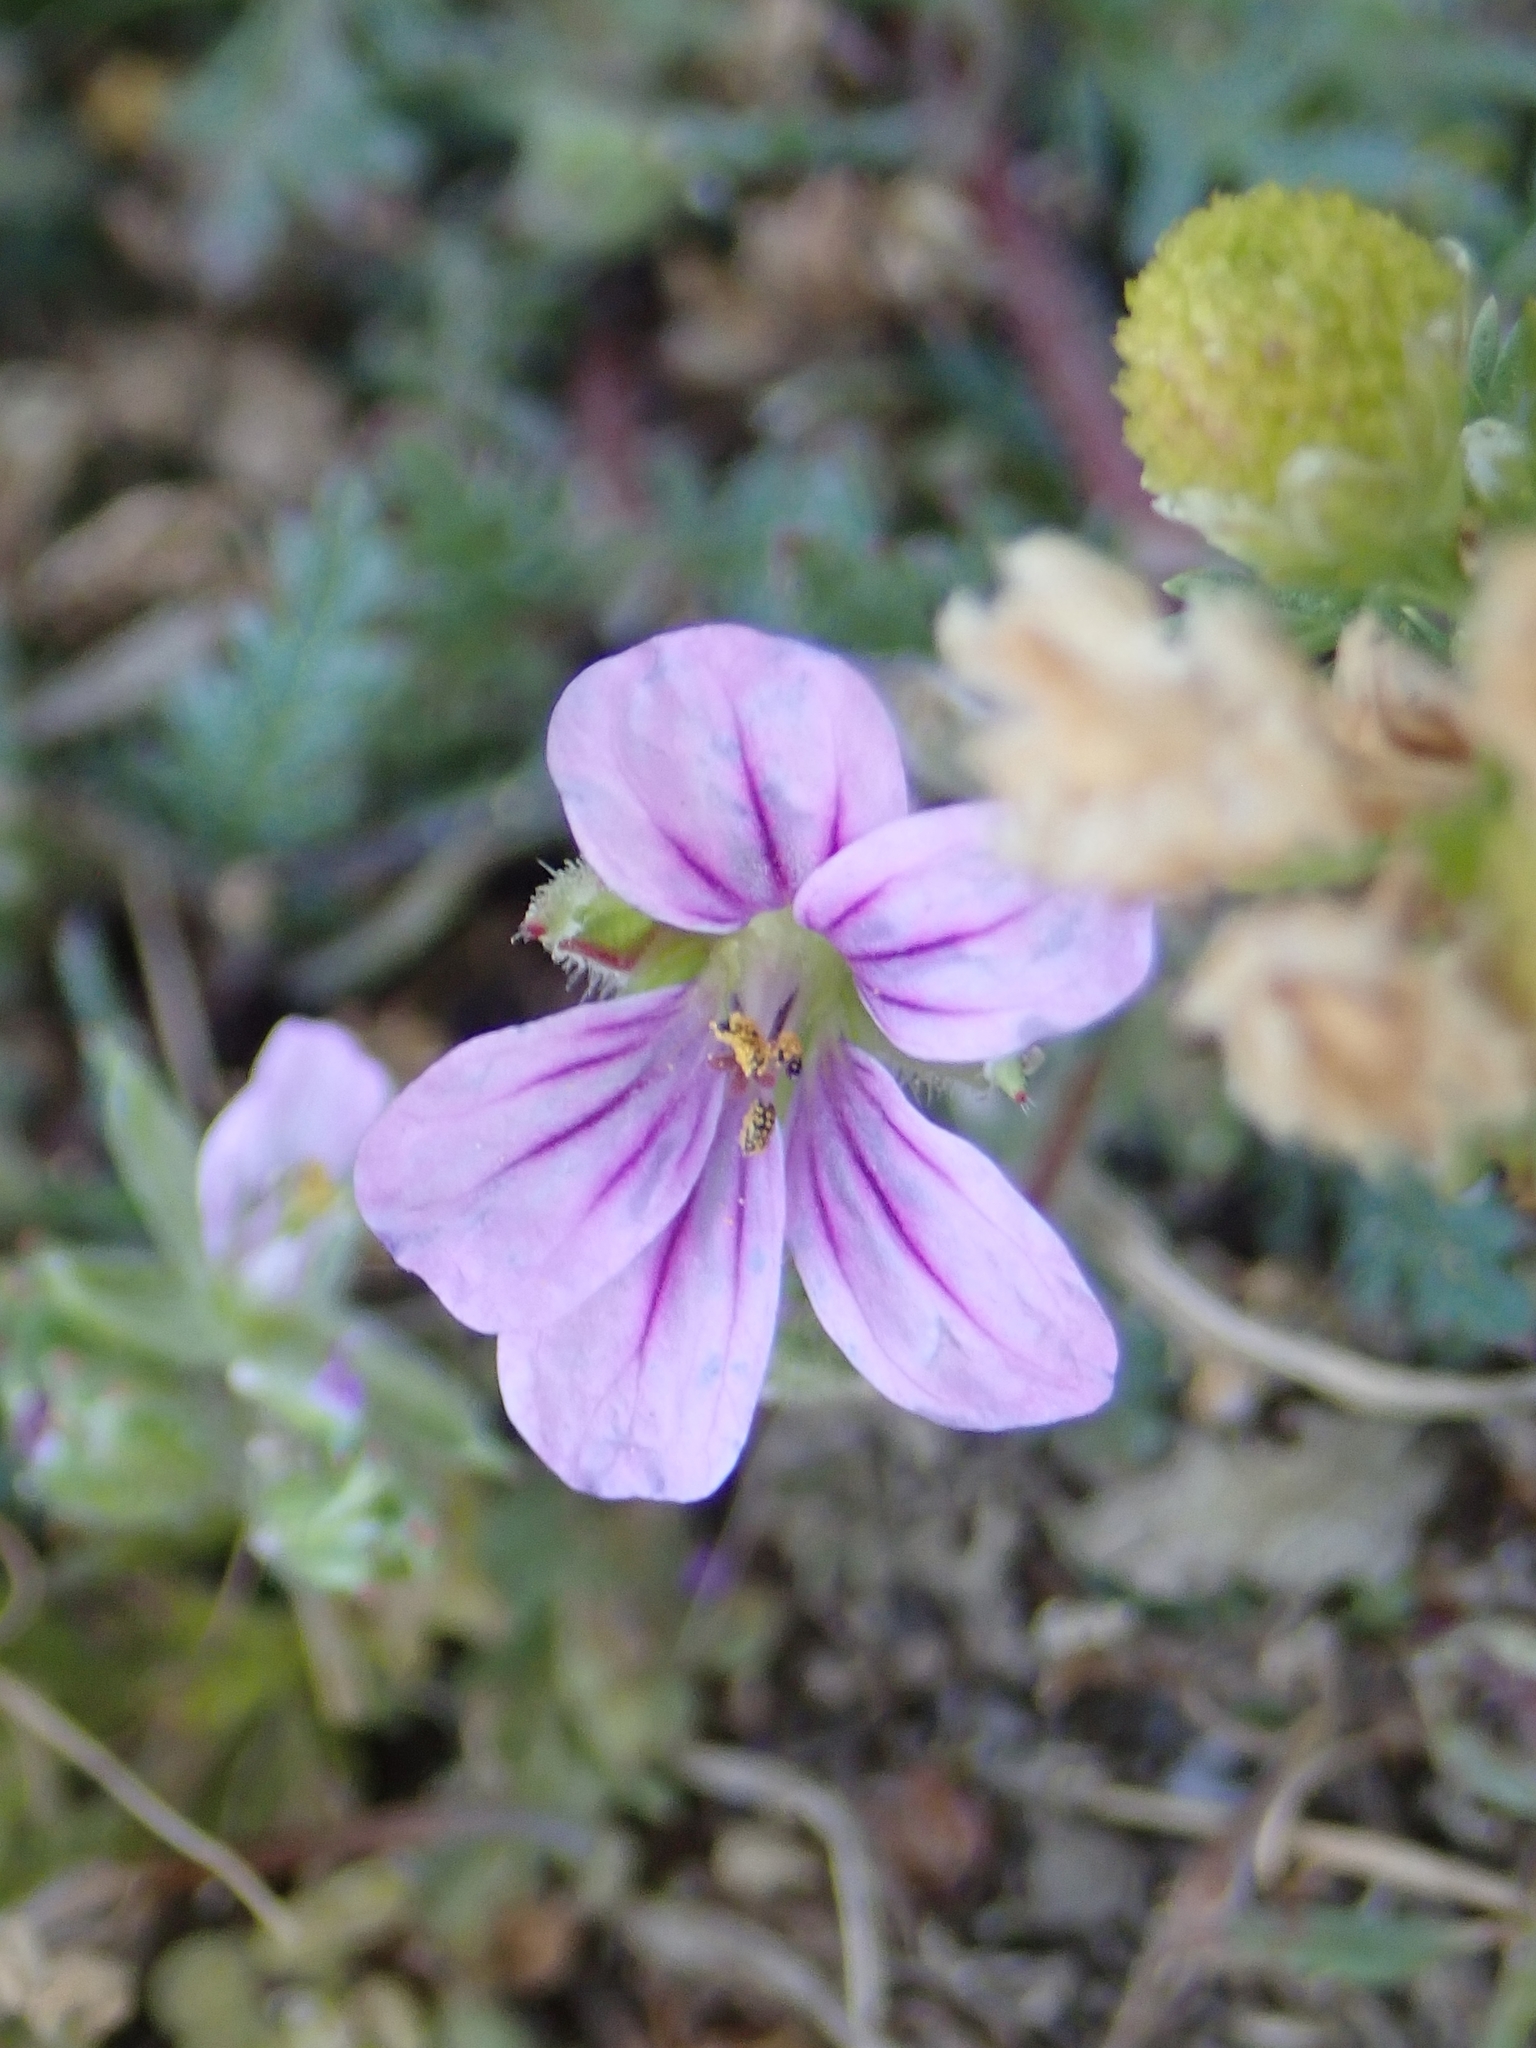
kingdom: Plantae
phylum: Tracheophyta
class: Magnoliopsida
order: Geraniales
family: Geraniaceae
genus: Erodium
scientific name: Erodium botrys
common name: Mediterranean stork's-bill
